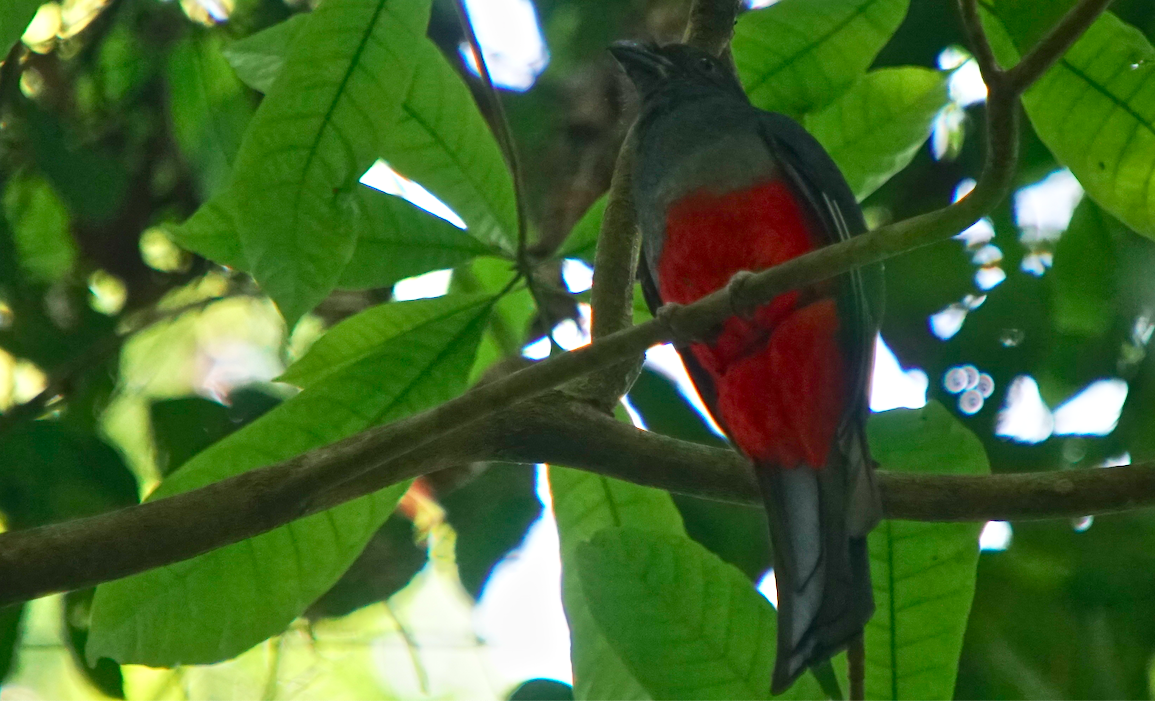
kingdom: Animalia
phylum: Chordata
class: Aves
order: Trogoniformes
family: Trogonidae
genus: Trogon
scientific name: Trogon massena
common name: Slaty-tailed trogon
